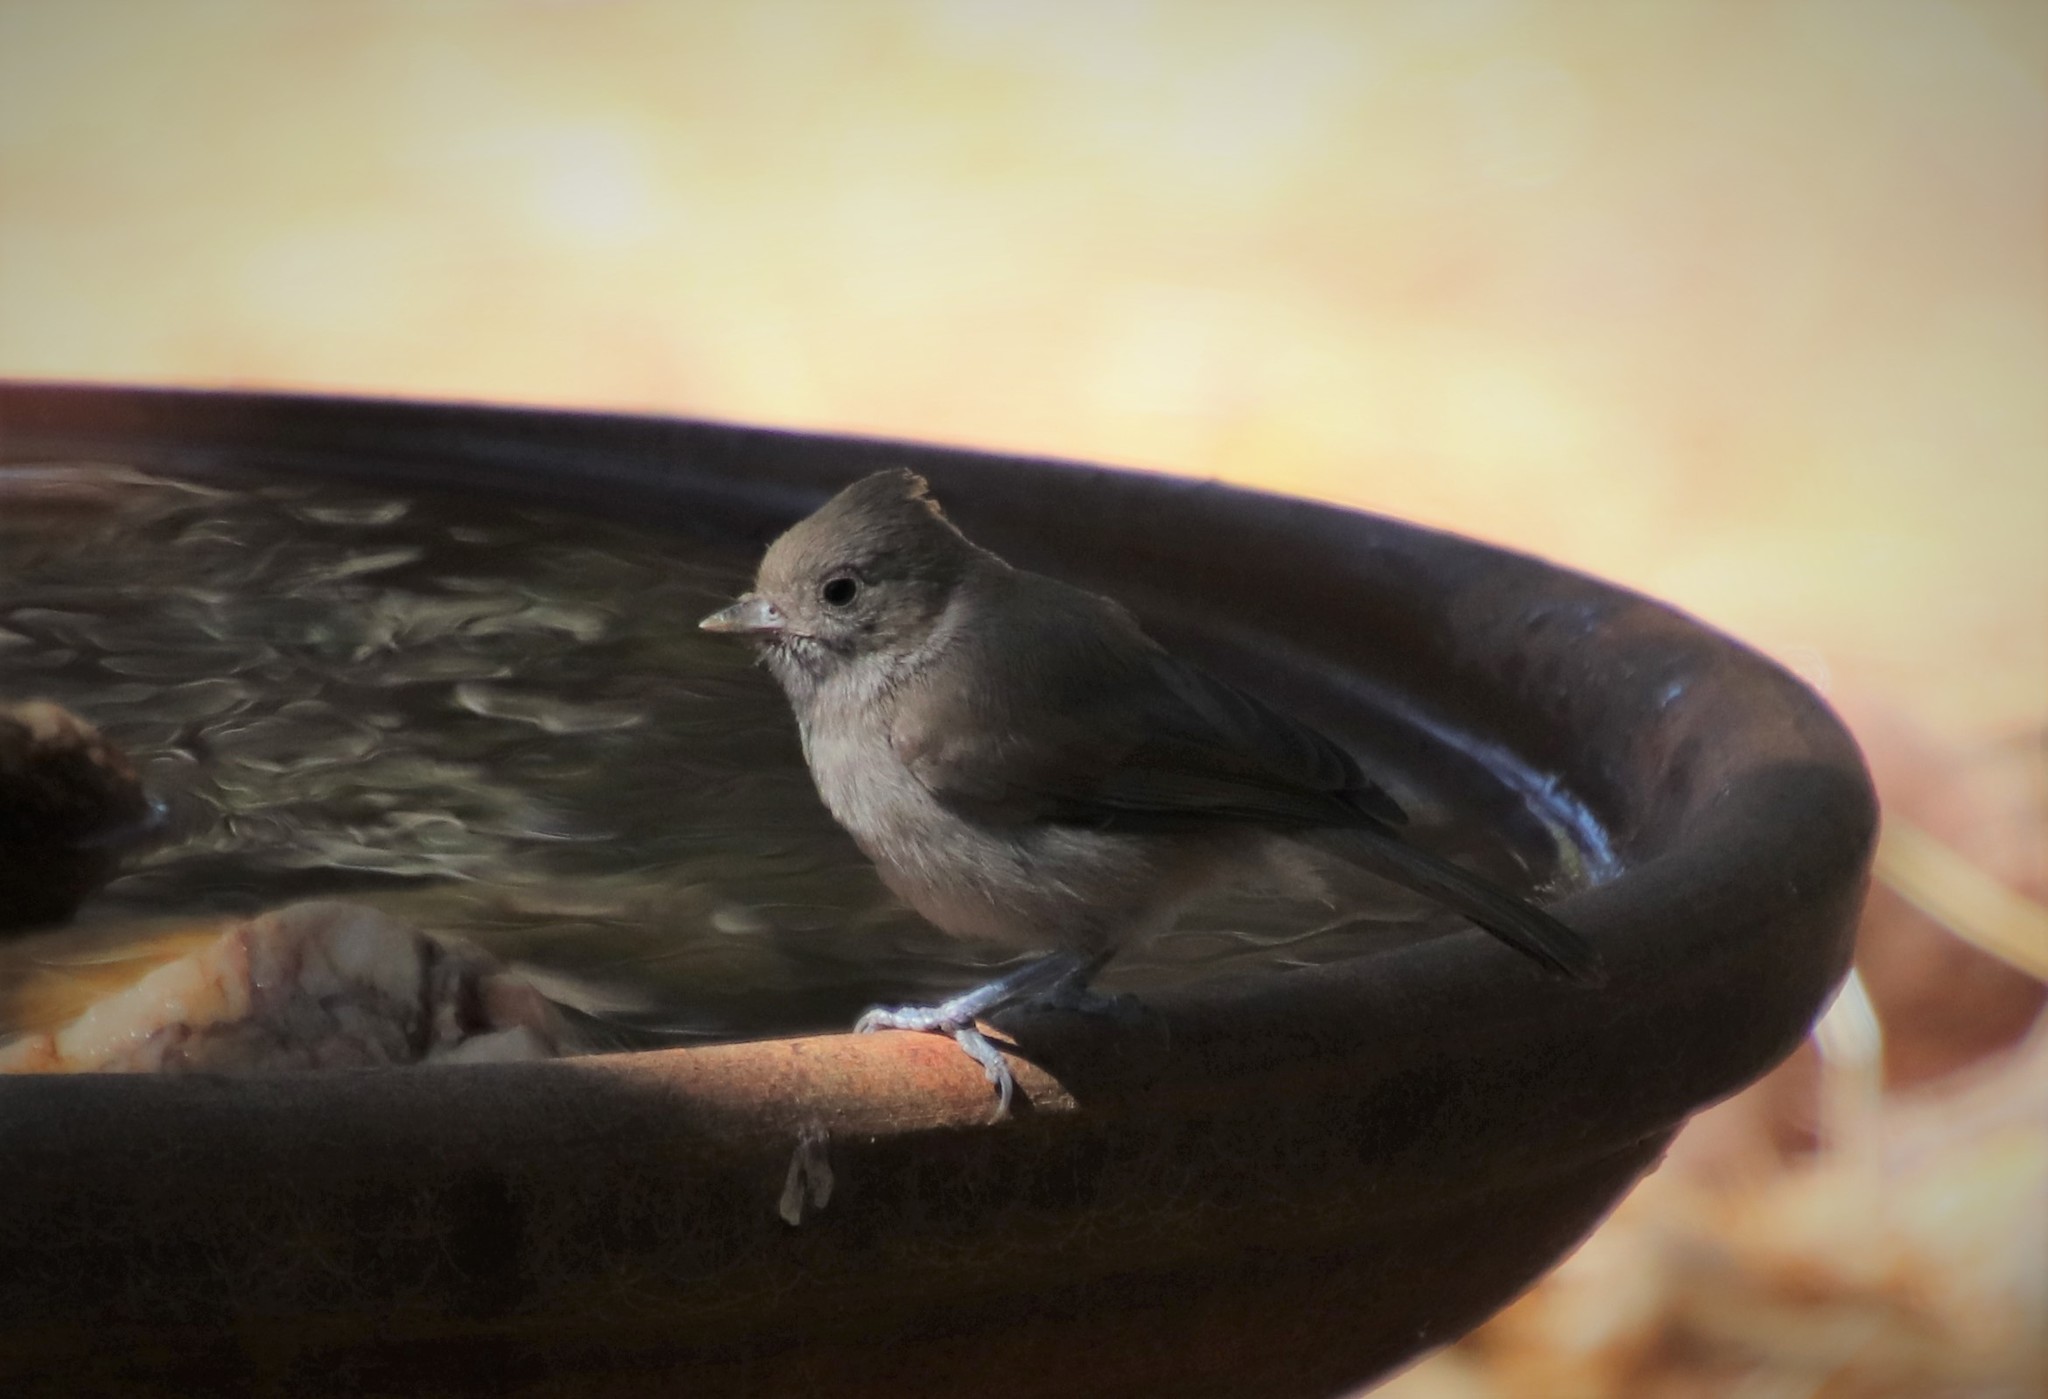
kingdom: Animalia
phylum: Chordata
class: Aves
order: Passeriformes
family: Paridae
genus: Baeolophus
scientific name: Baeolophus inornatus
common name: Oak titmouse
